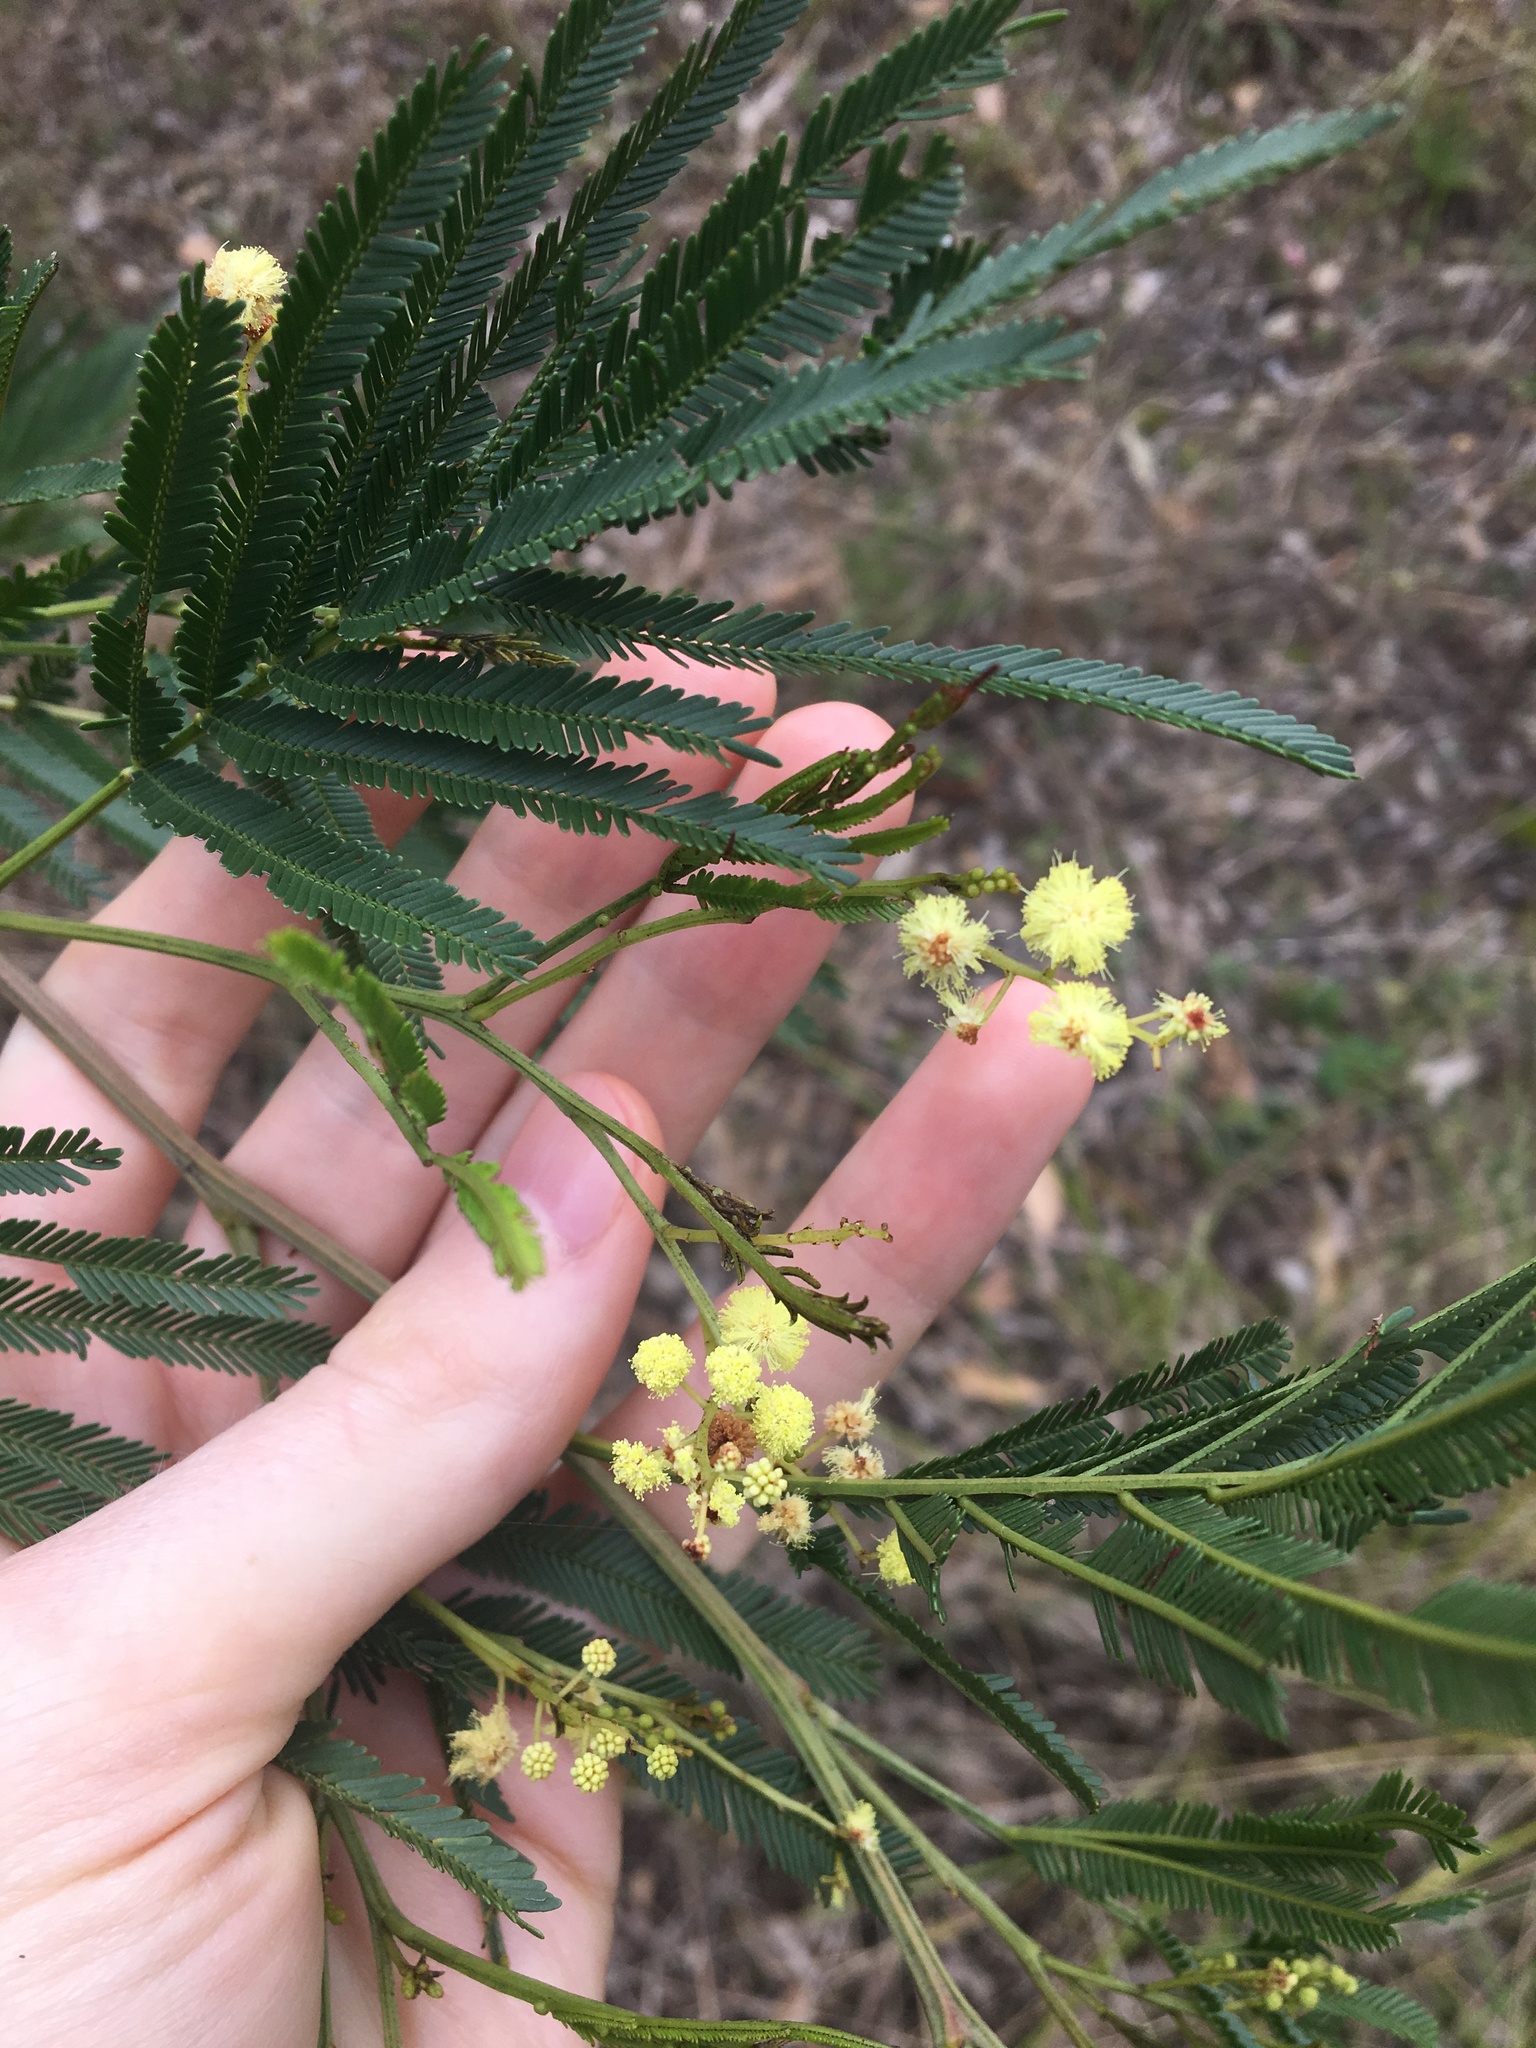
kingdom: Plantae
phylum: Tracheophyta
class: Magnoliopsida
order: Fabales
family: Fabaceae
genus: Acacia
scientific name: Acacia parramattensis
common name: Sydney green wattle
